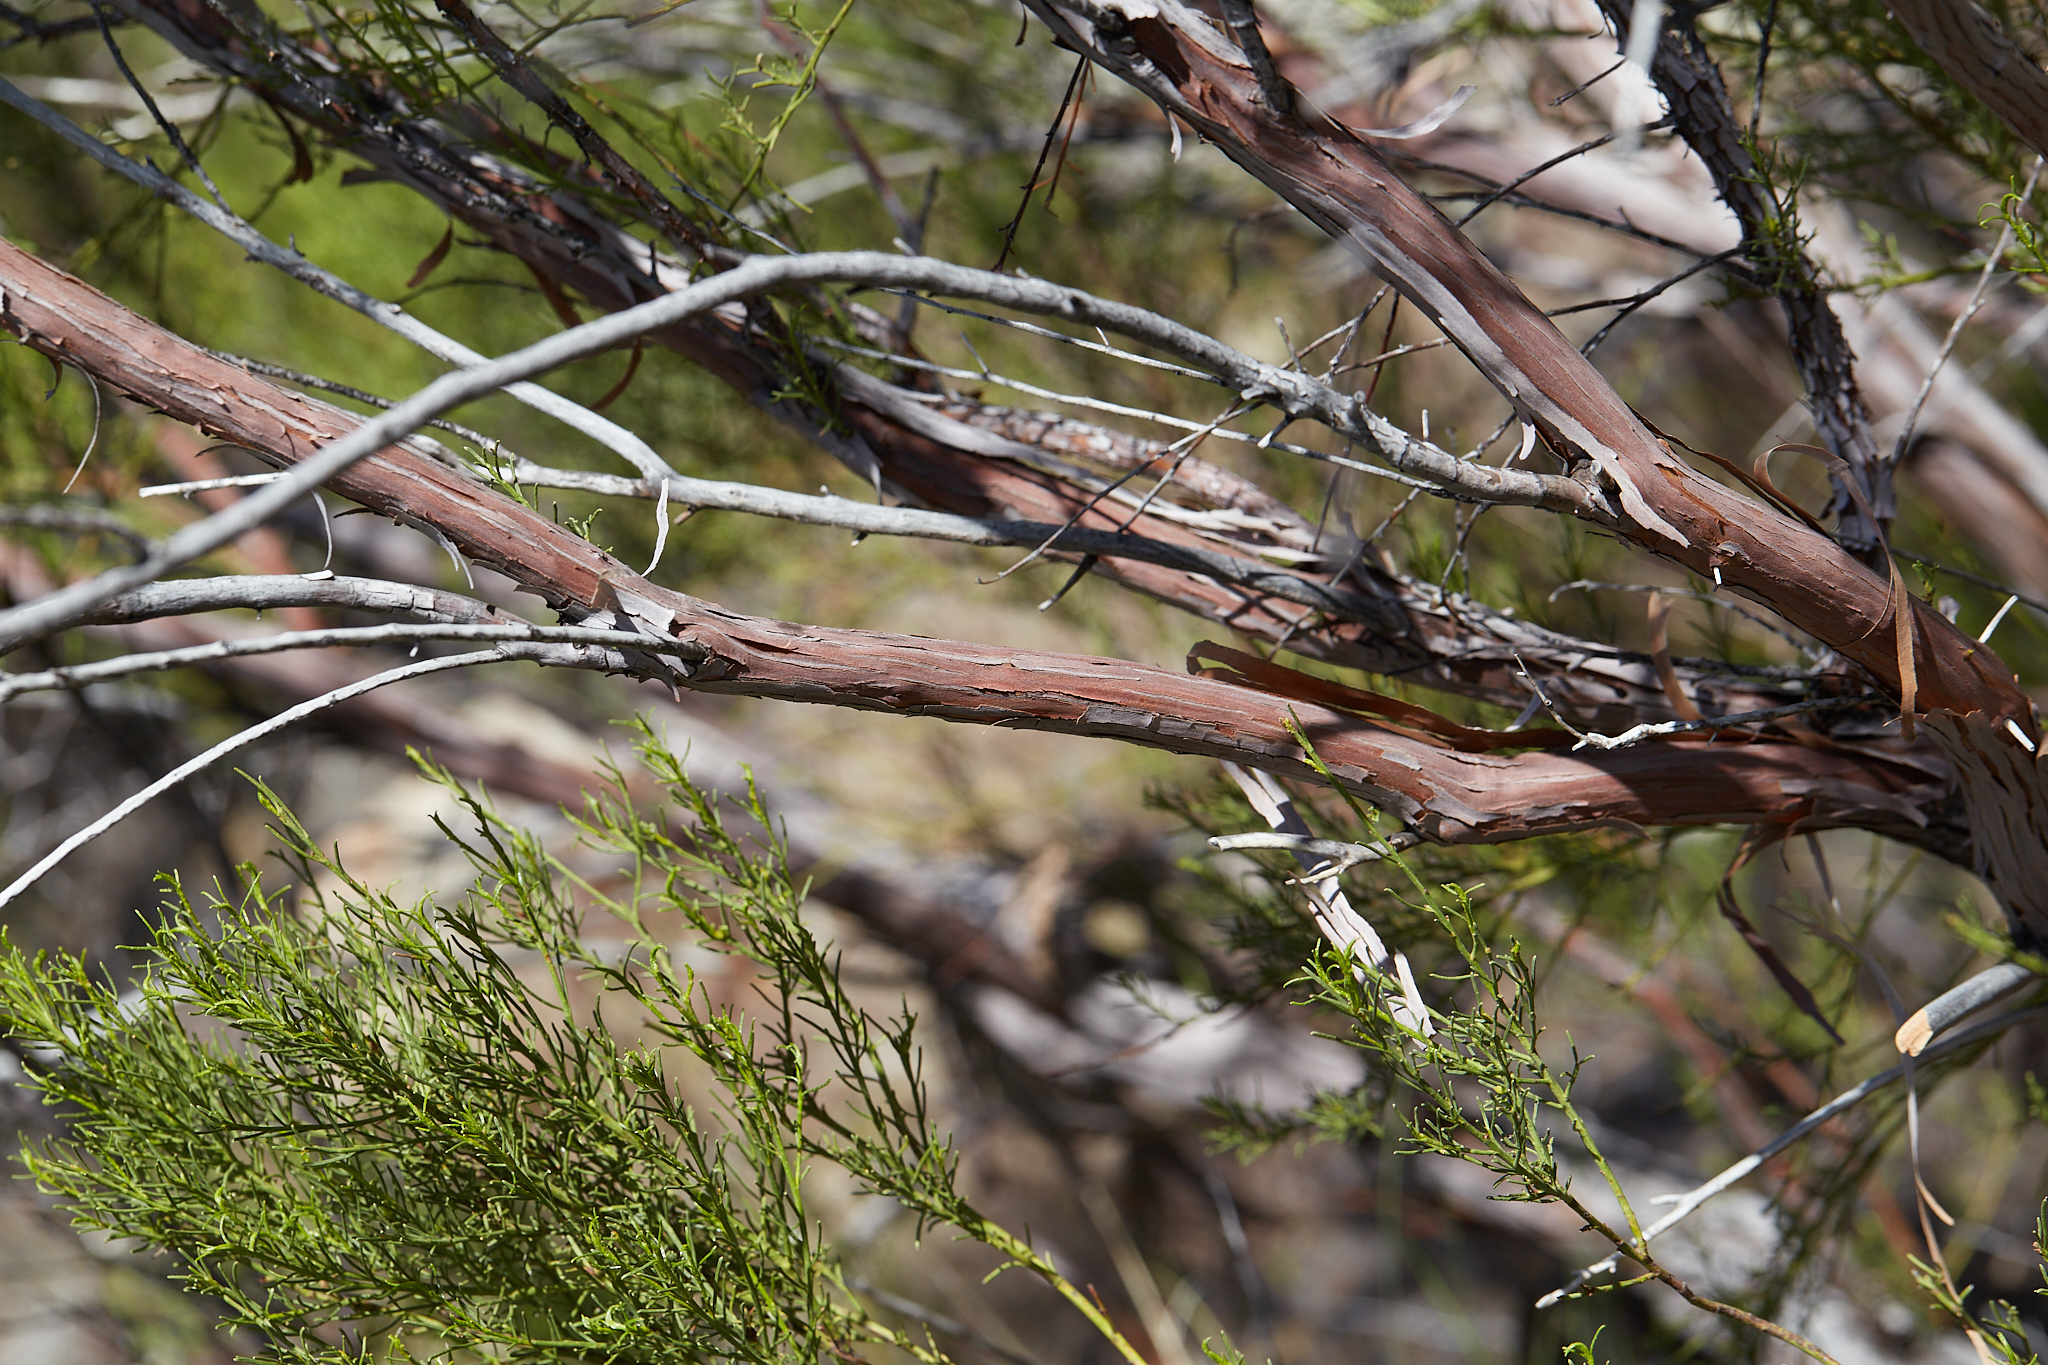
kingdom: Plantae
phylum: Tracheophyta
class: Magnoliopsida
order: Rosales
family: Rosaceae
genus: Adenostoma
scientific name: Adenostoma sparsifolium
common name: Red shank
